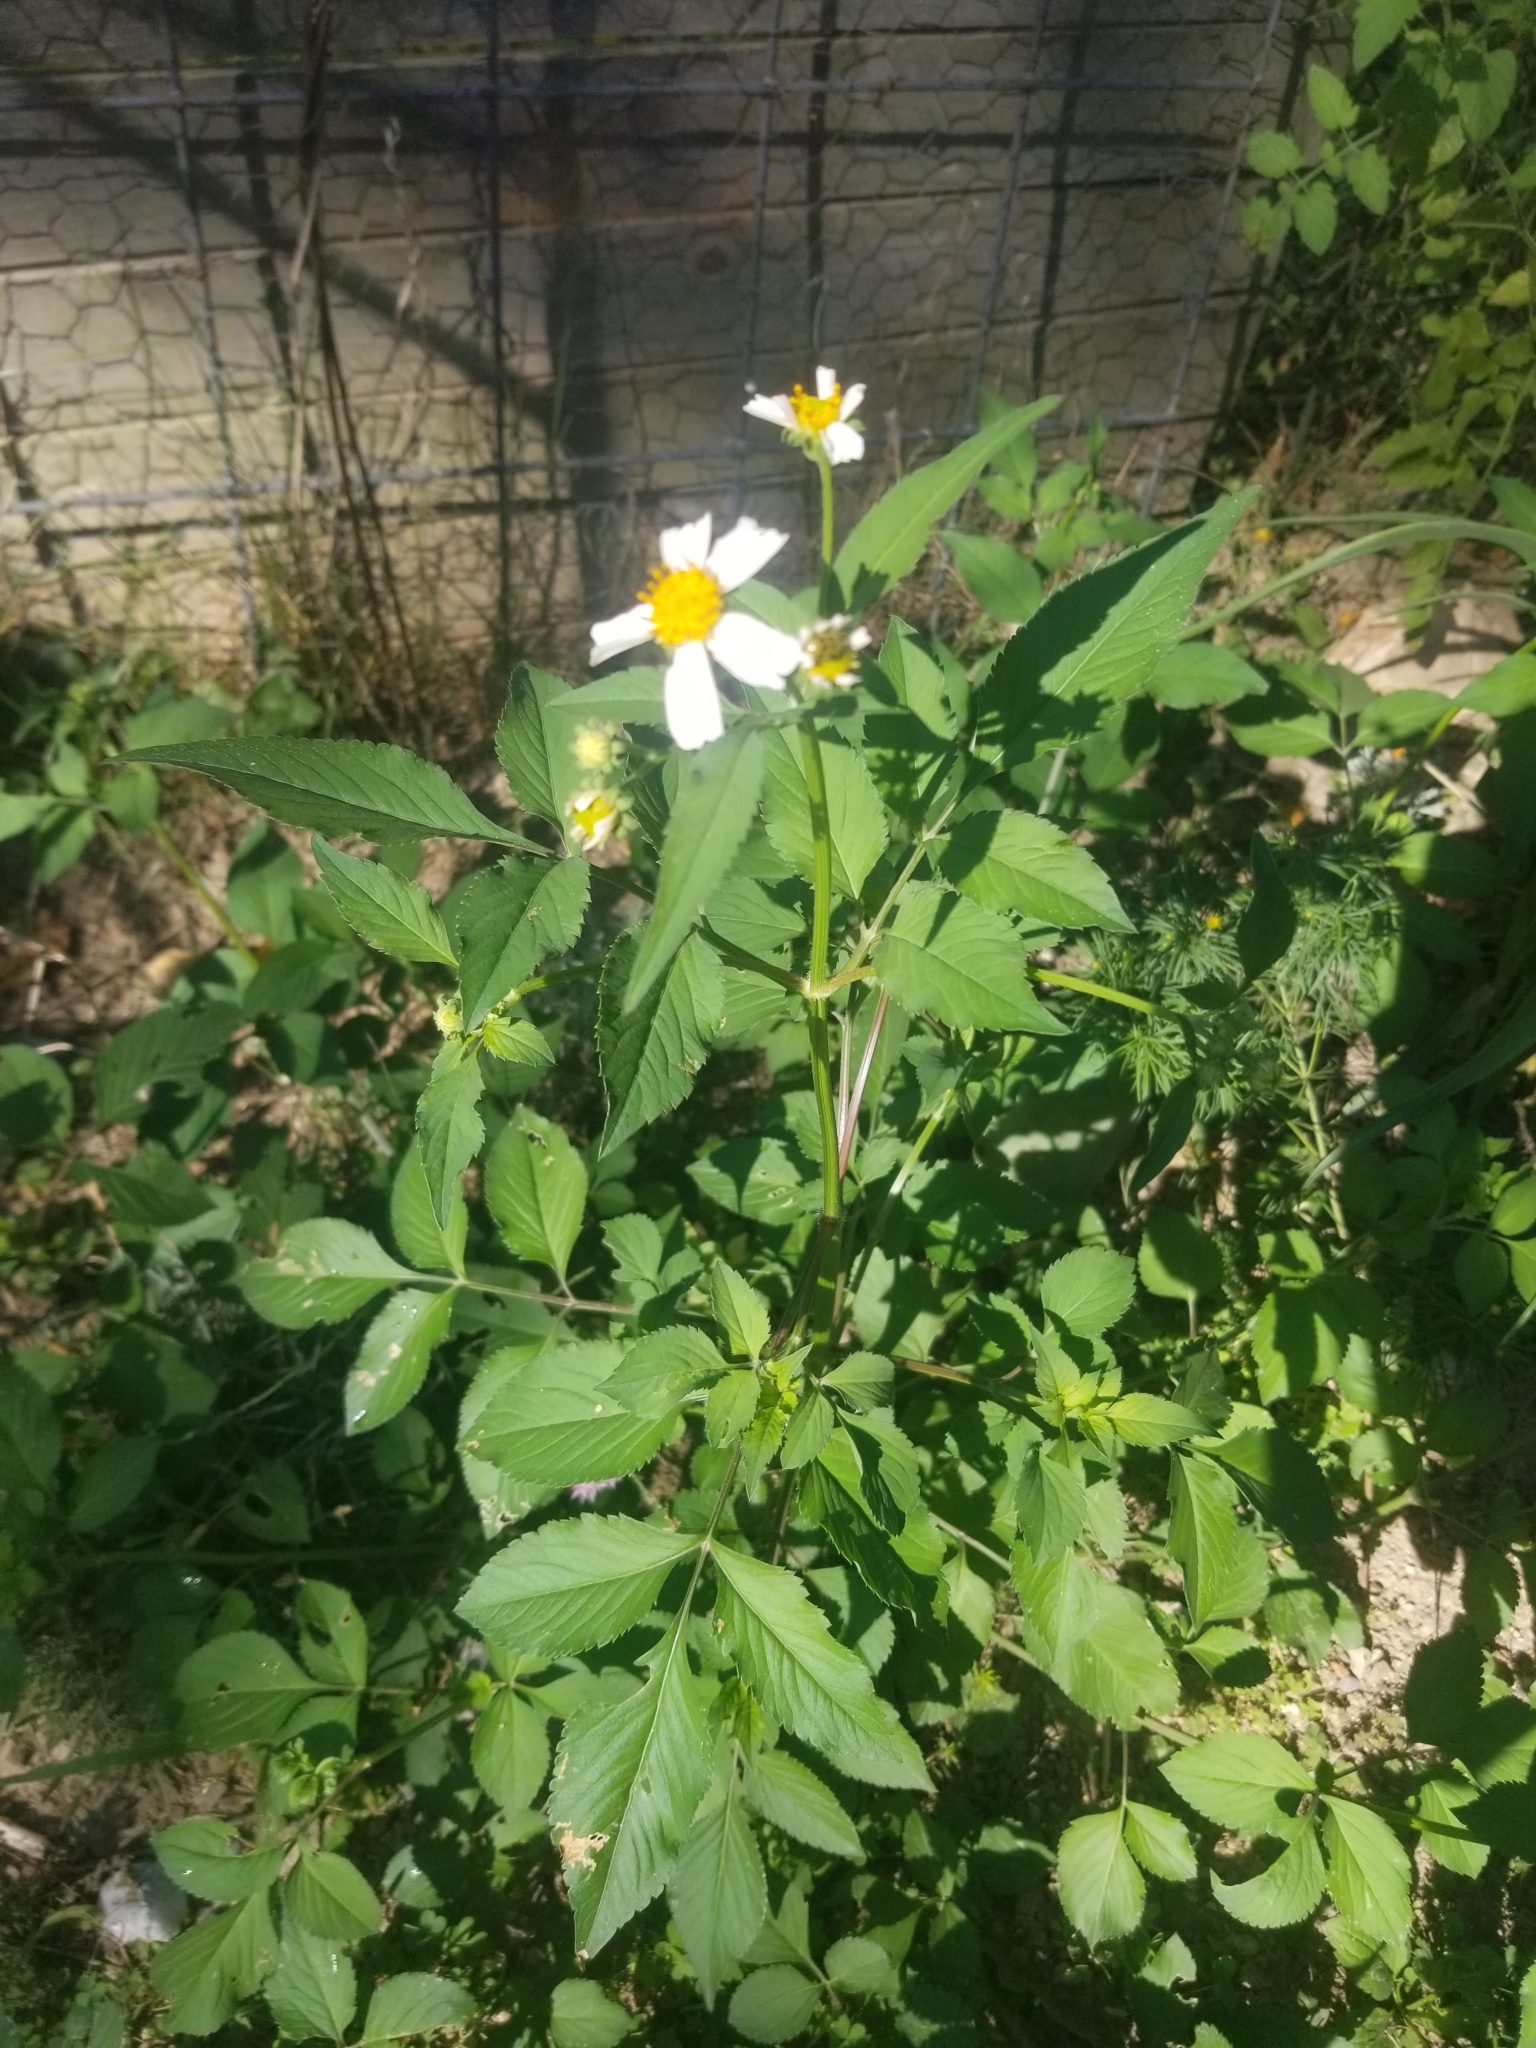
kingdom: Plantae
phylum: Tracheophyta
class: Magnoliopsida
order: Asterales
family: Asteraceae
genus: Bidens
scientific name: Bidens alba
